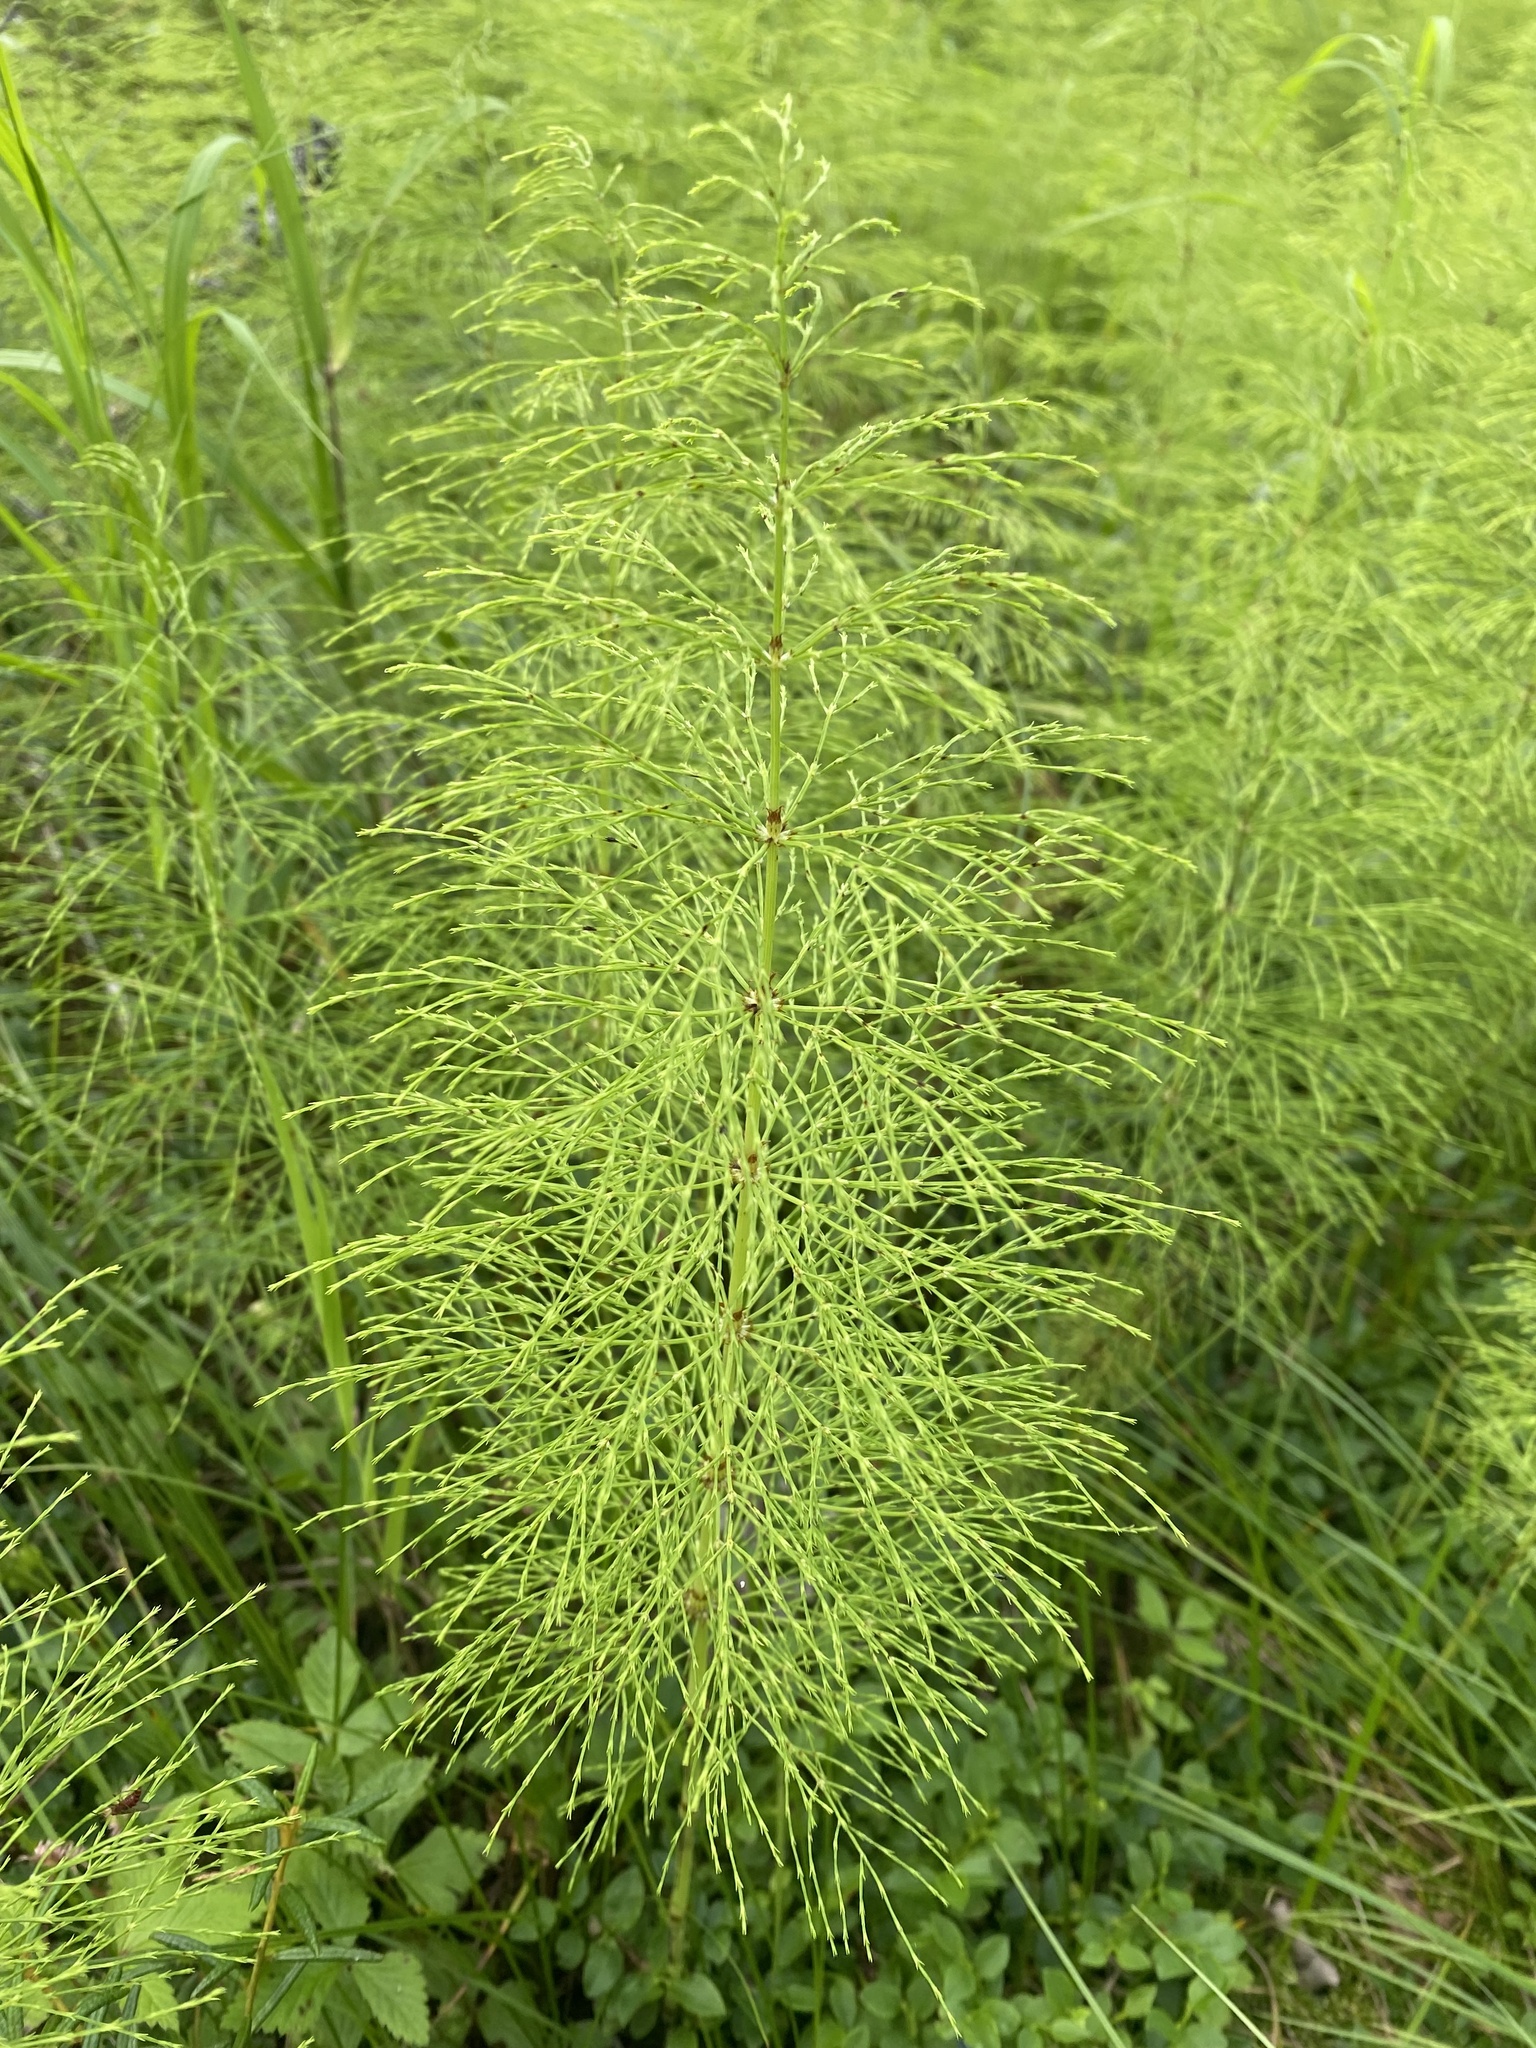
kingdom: Plantae
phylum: Tracheophyta
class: Polypodiopsida
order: Equisetales
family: Equisetaceae
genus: Equisetum
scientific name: Equisetum sylvaticum
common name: Wood horsetail
